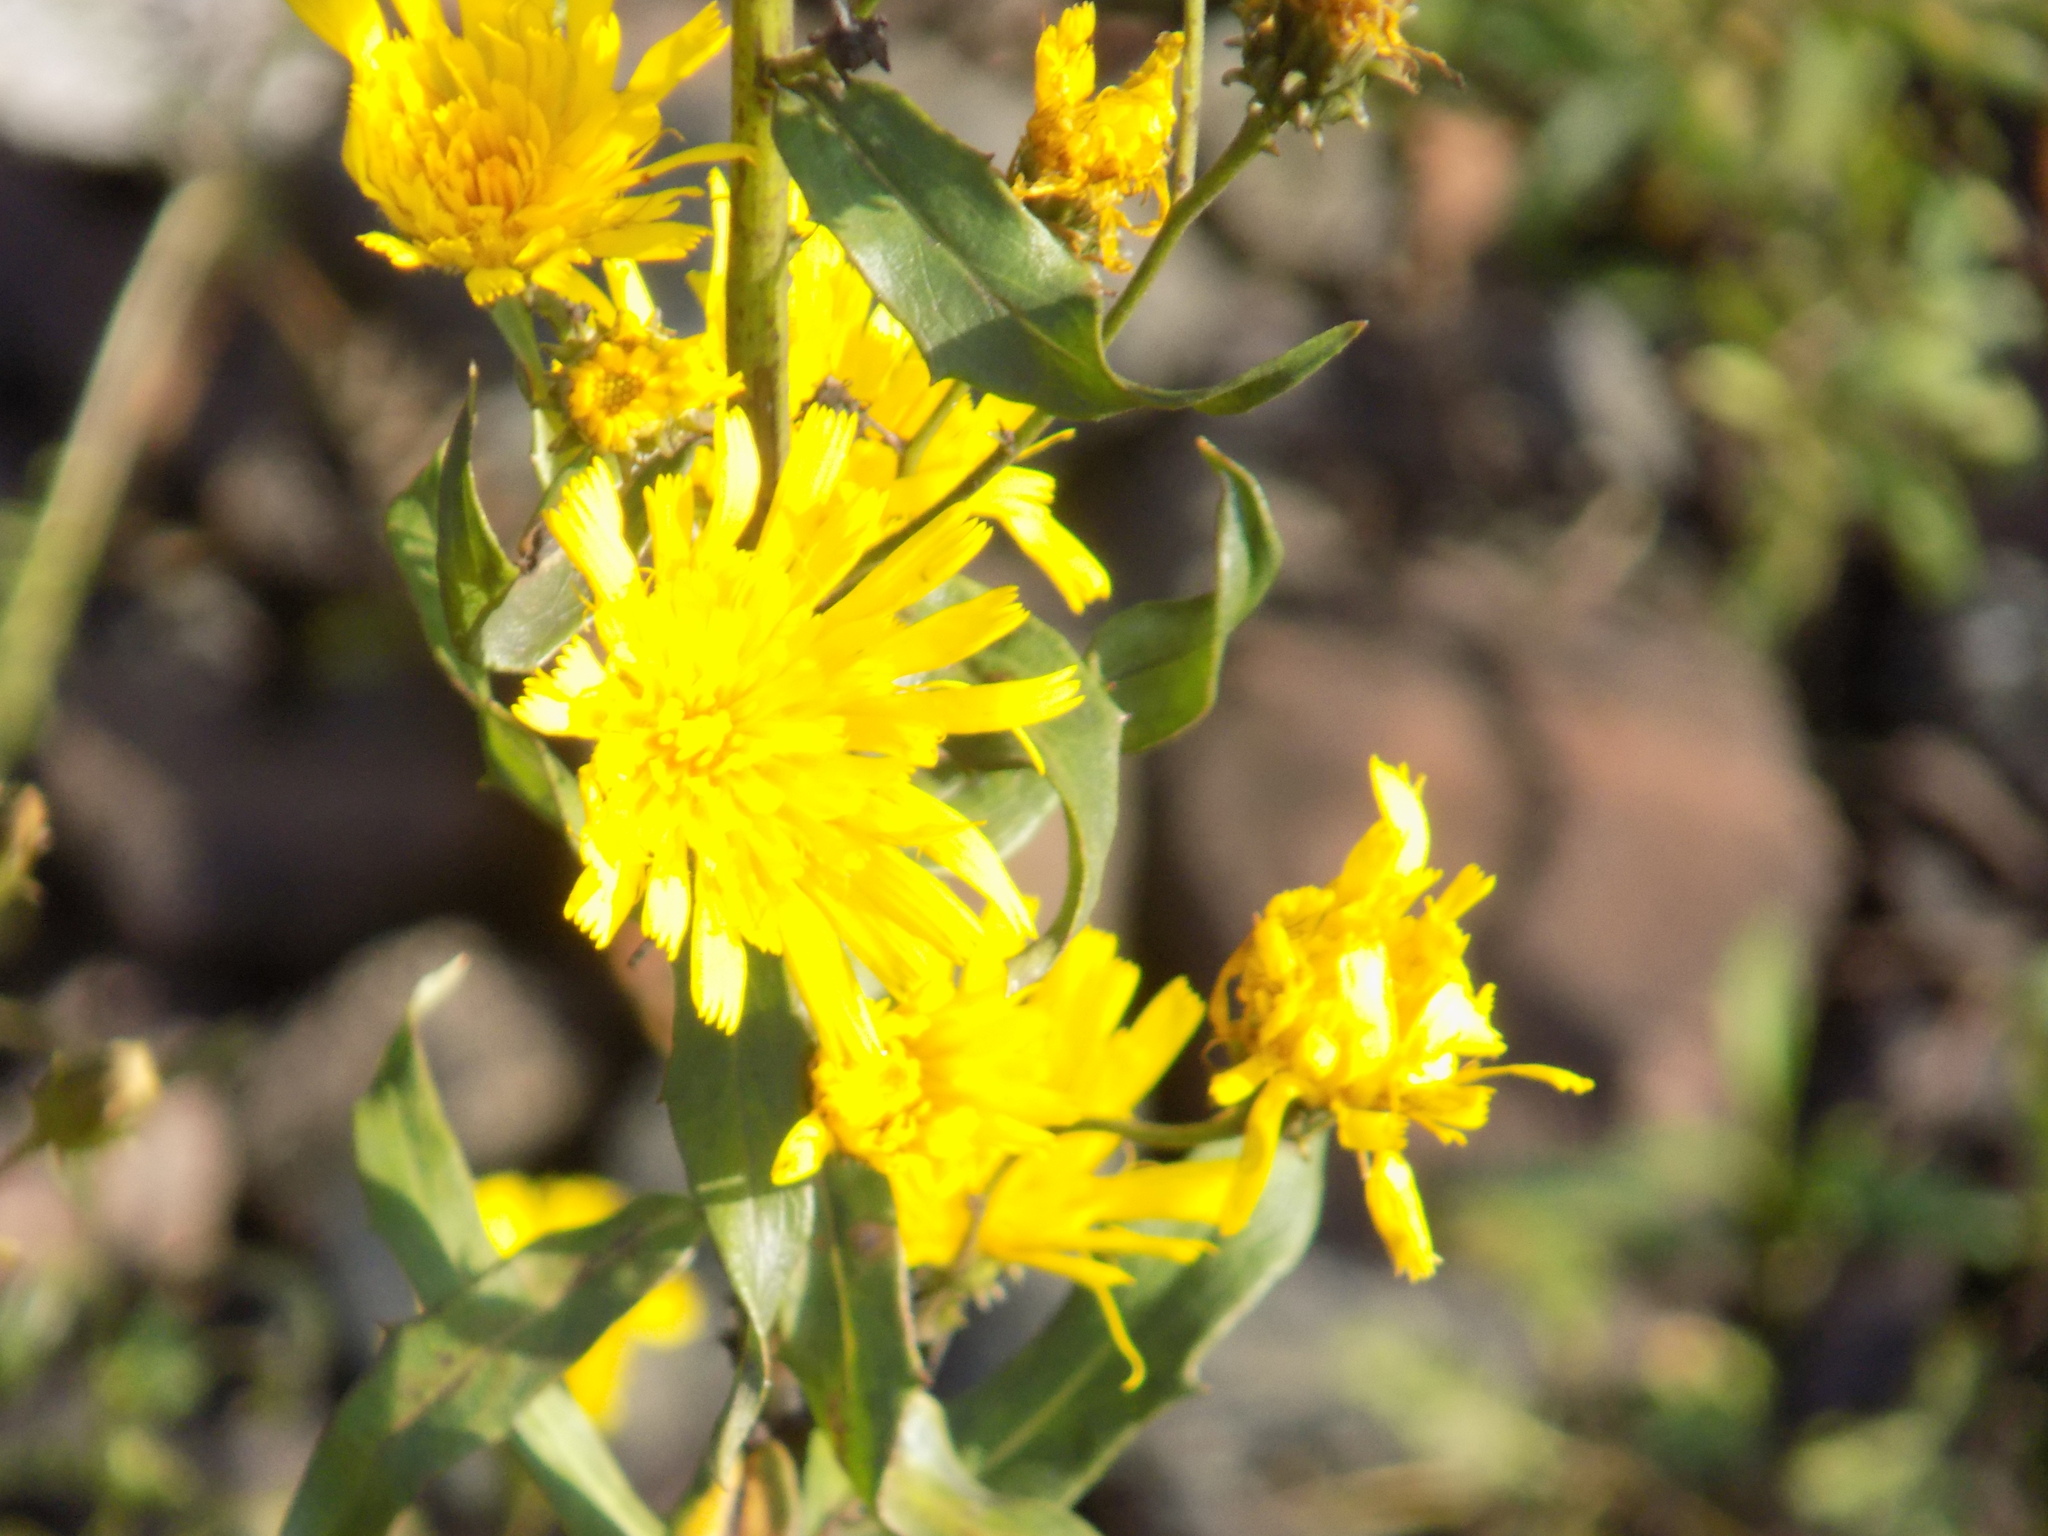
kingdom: Plantae
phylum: Tracheophyta
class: Magnoliopsida
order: Asterales
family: Asteraceae
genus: Hieracium
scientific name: Hieracium umbellatum
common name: Northern hawkweed
